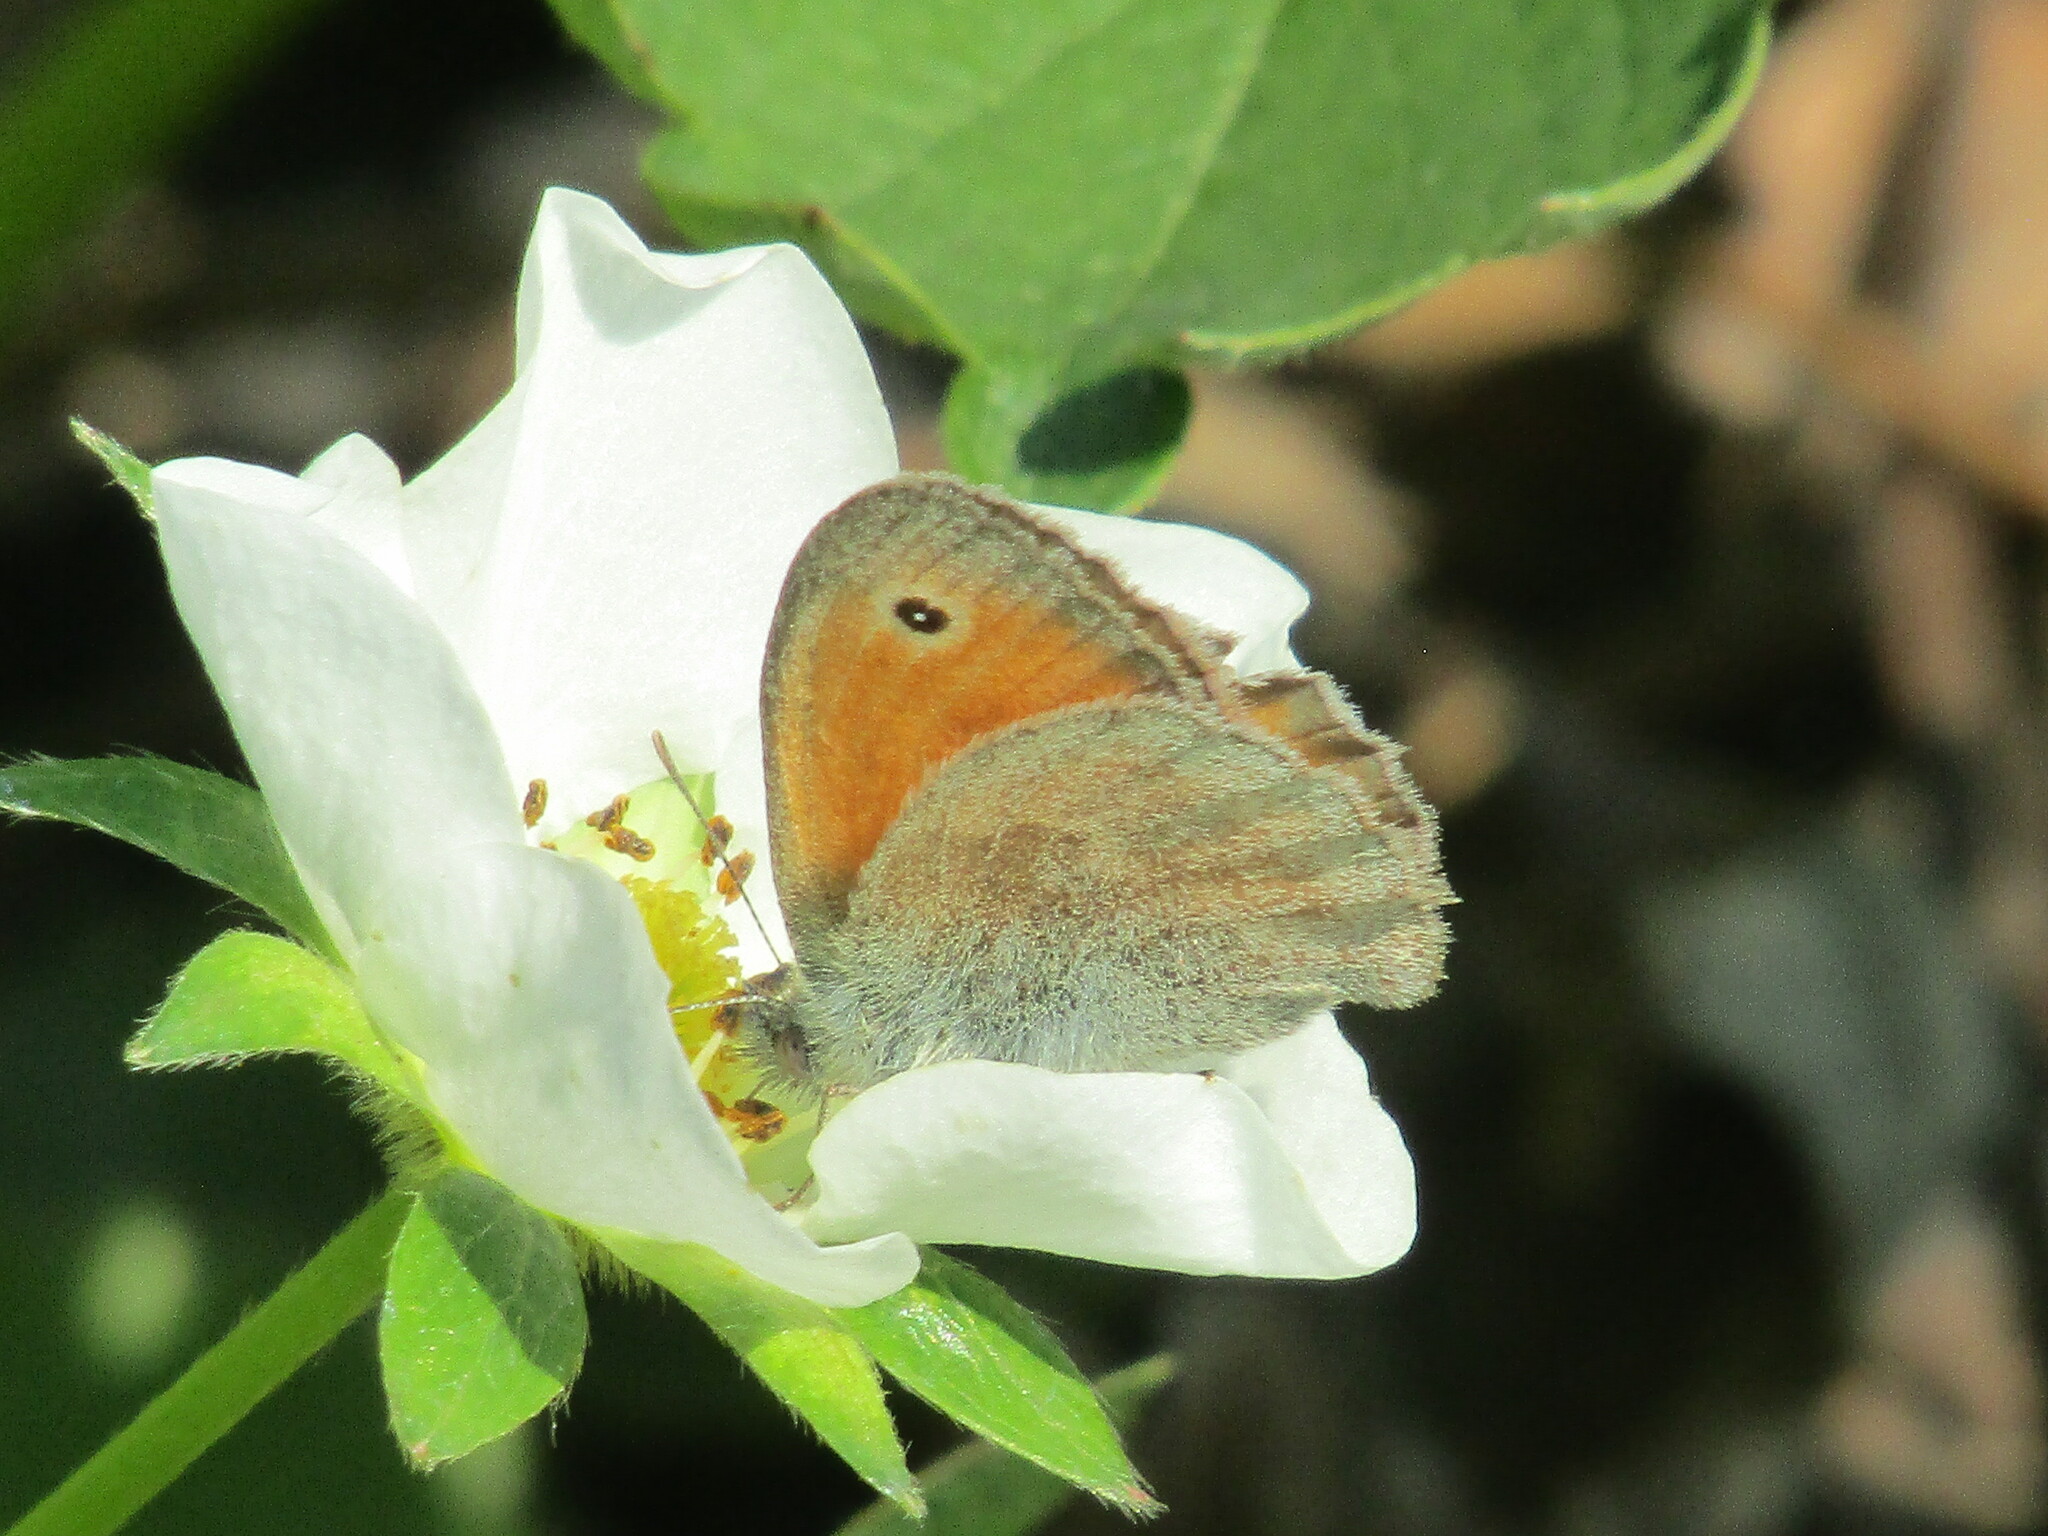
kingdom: Animalia
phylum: Arthropoda
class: Insecta
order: Lepidoptera
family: Nymphalidae
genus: Coenonympha
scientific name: Coenonympha pamphilus
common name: Small heath
